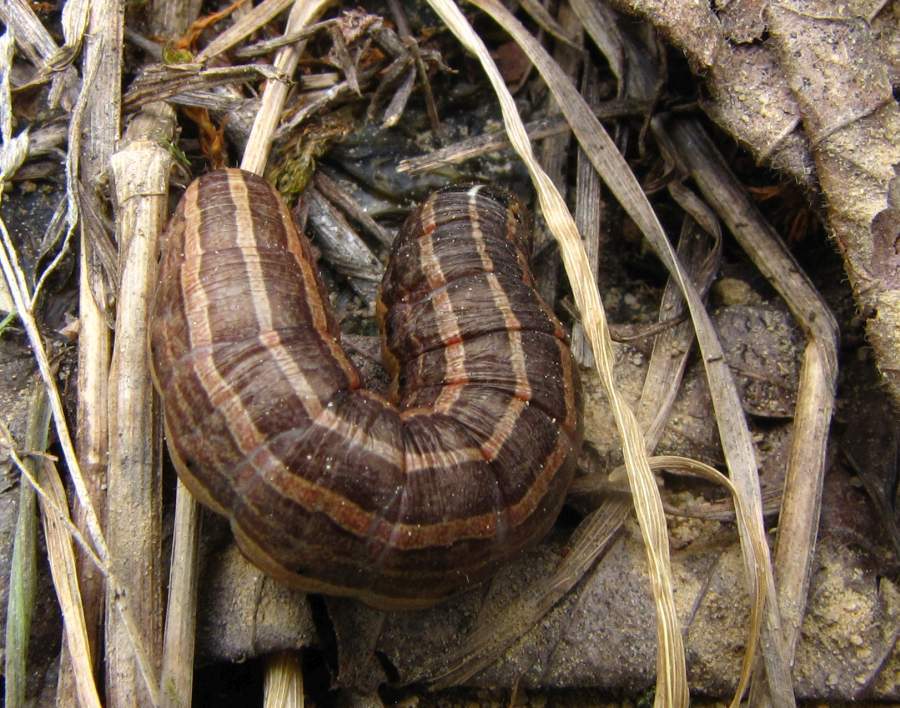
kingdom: Animalia
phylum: Arthropoda
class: Insecta
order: Lepidoptera
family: Noctuidae
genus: Nephelodes
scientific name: Nephelodes minians
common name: Bronzed cutworm
